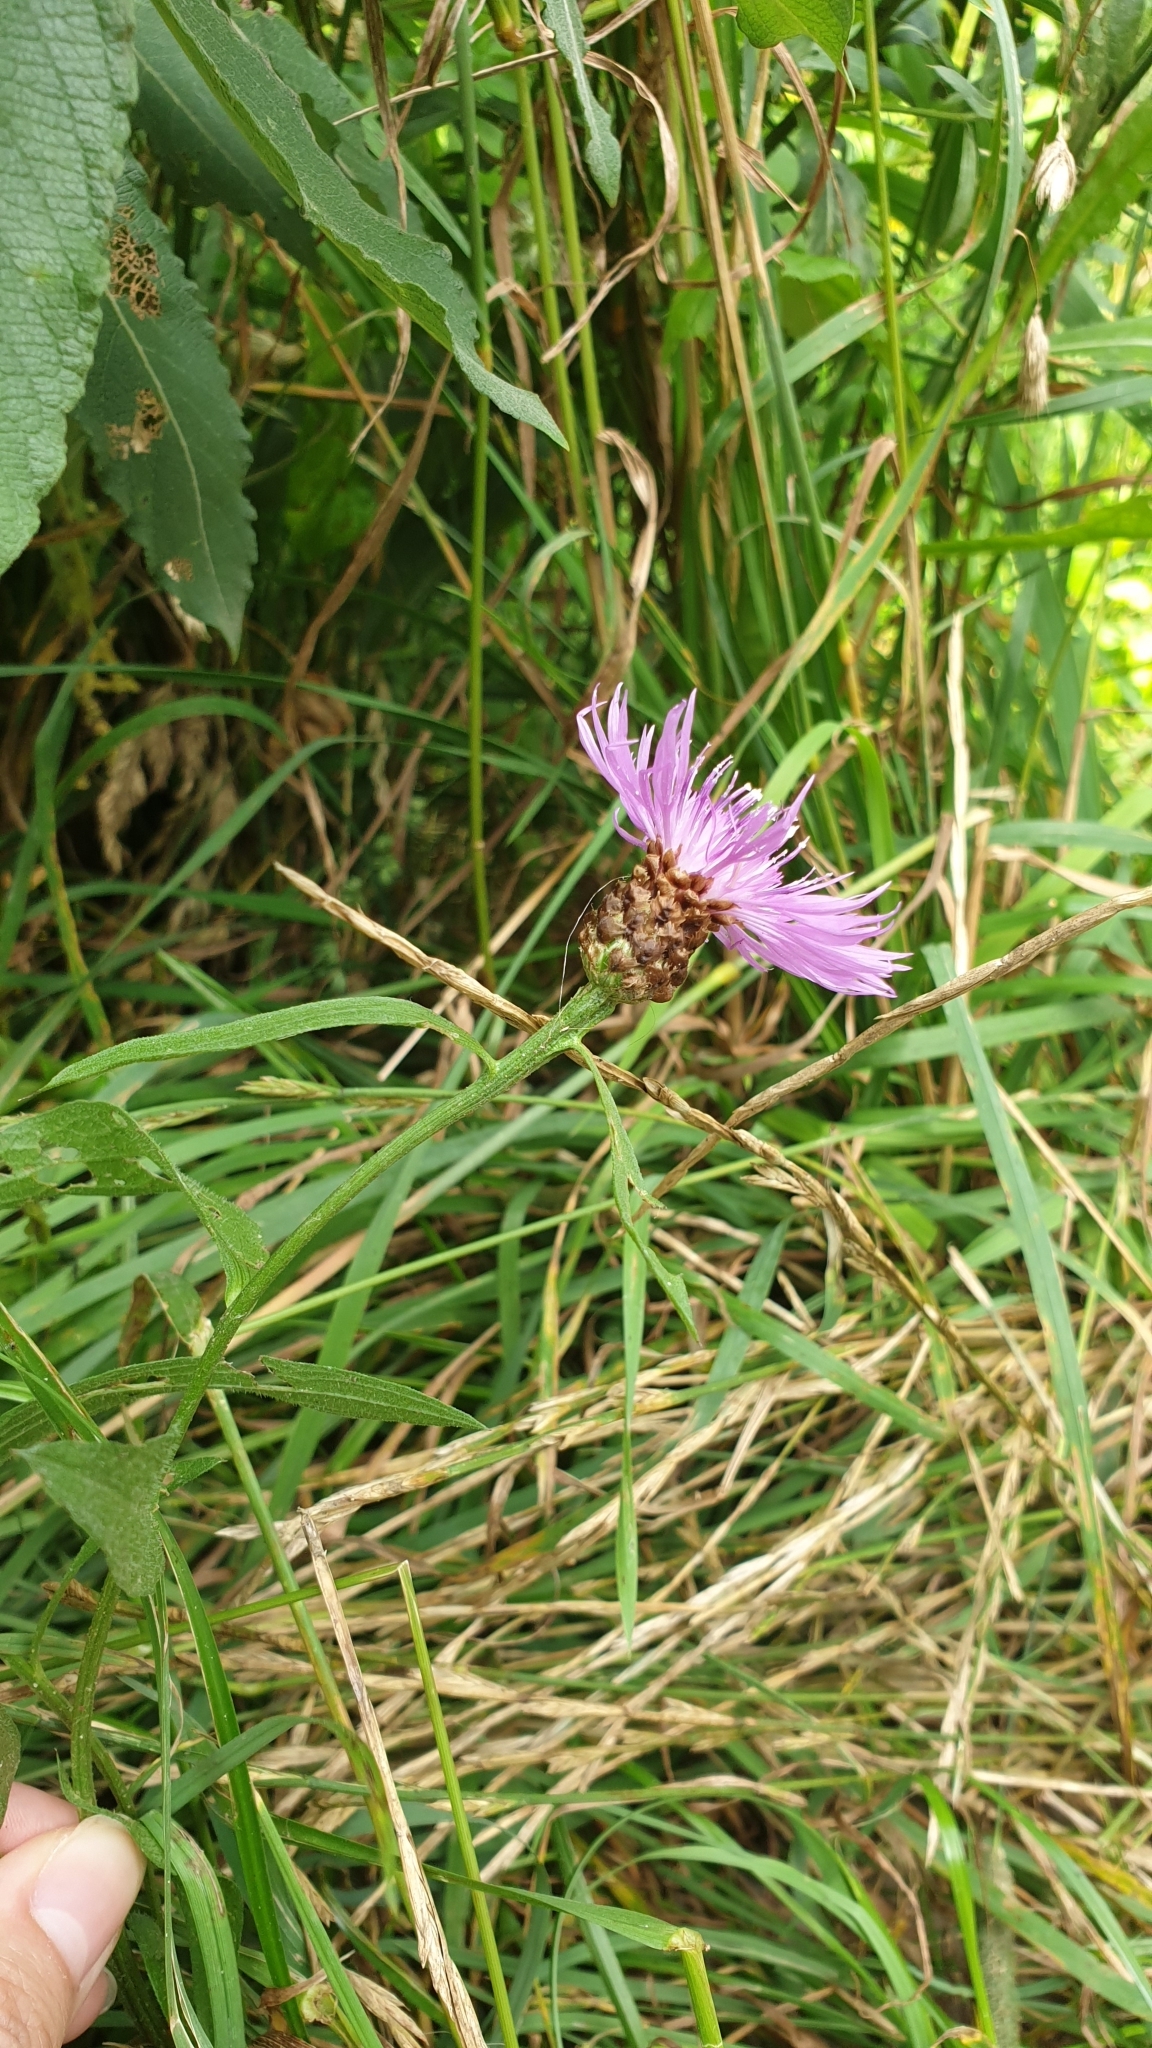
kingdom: Plantae
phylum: Tracheophyta
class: Magnoliopsida
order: Asterales
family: Asteraceae
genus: Centaurea
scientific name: Centaurea jacea
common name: Brown knapweed
